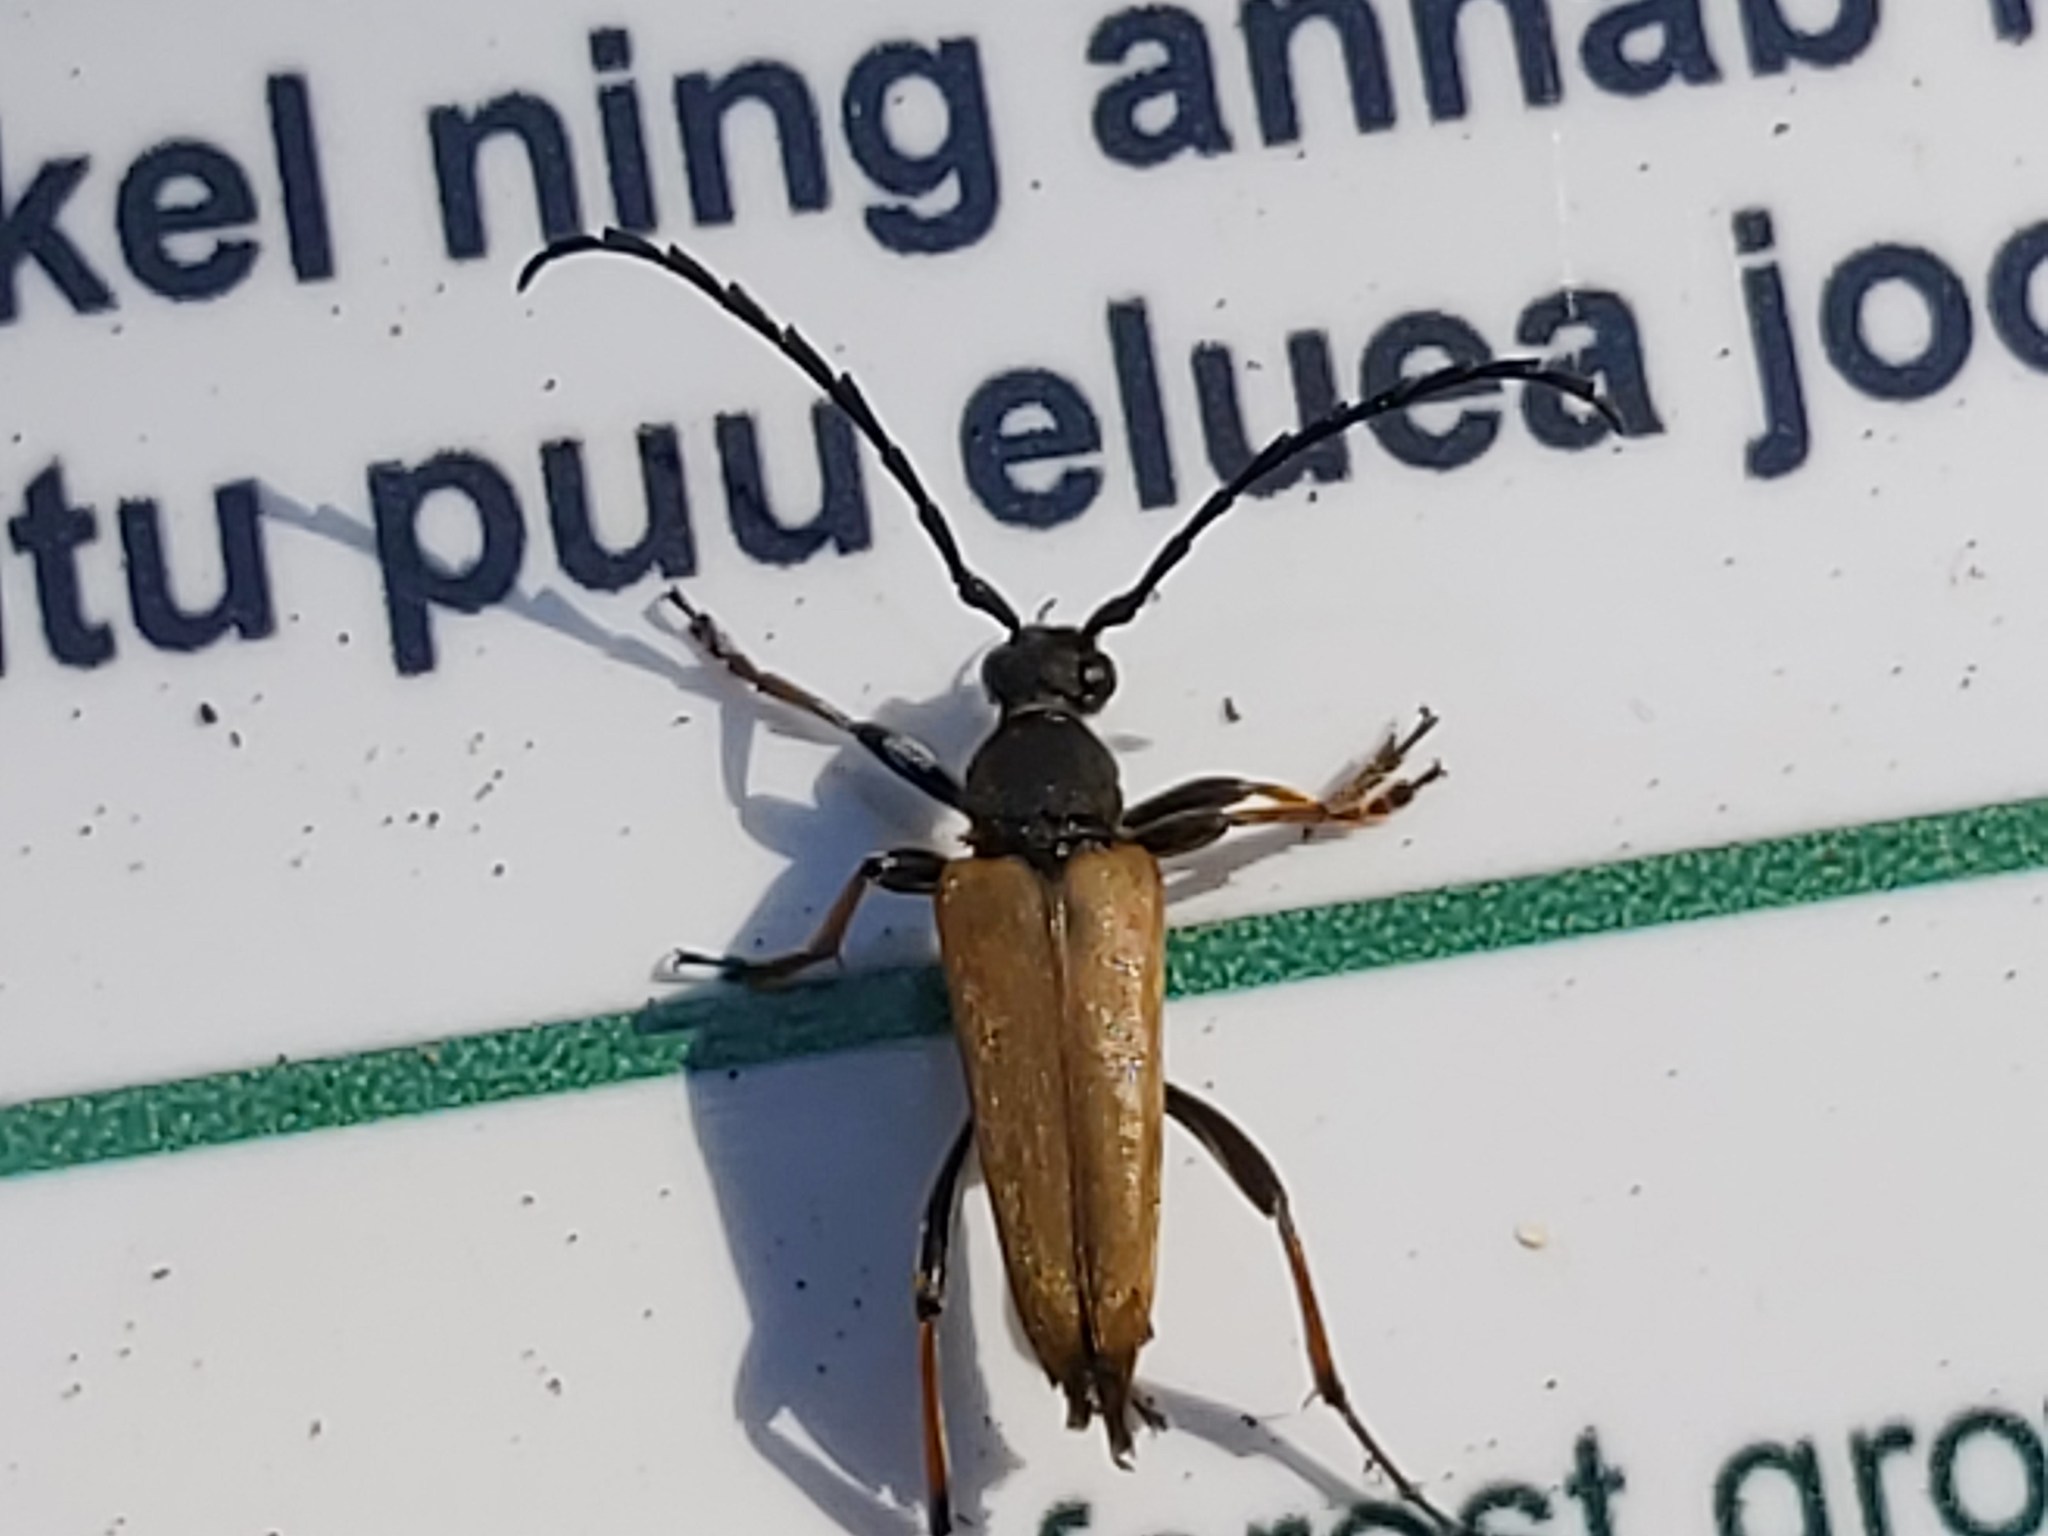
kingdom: Animalia
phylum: Arthropoda
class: Insecta
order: Coleoptera
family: Cerambycidae
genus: Stictoleptura
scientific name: Stictoleptura rubra
